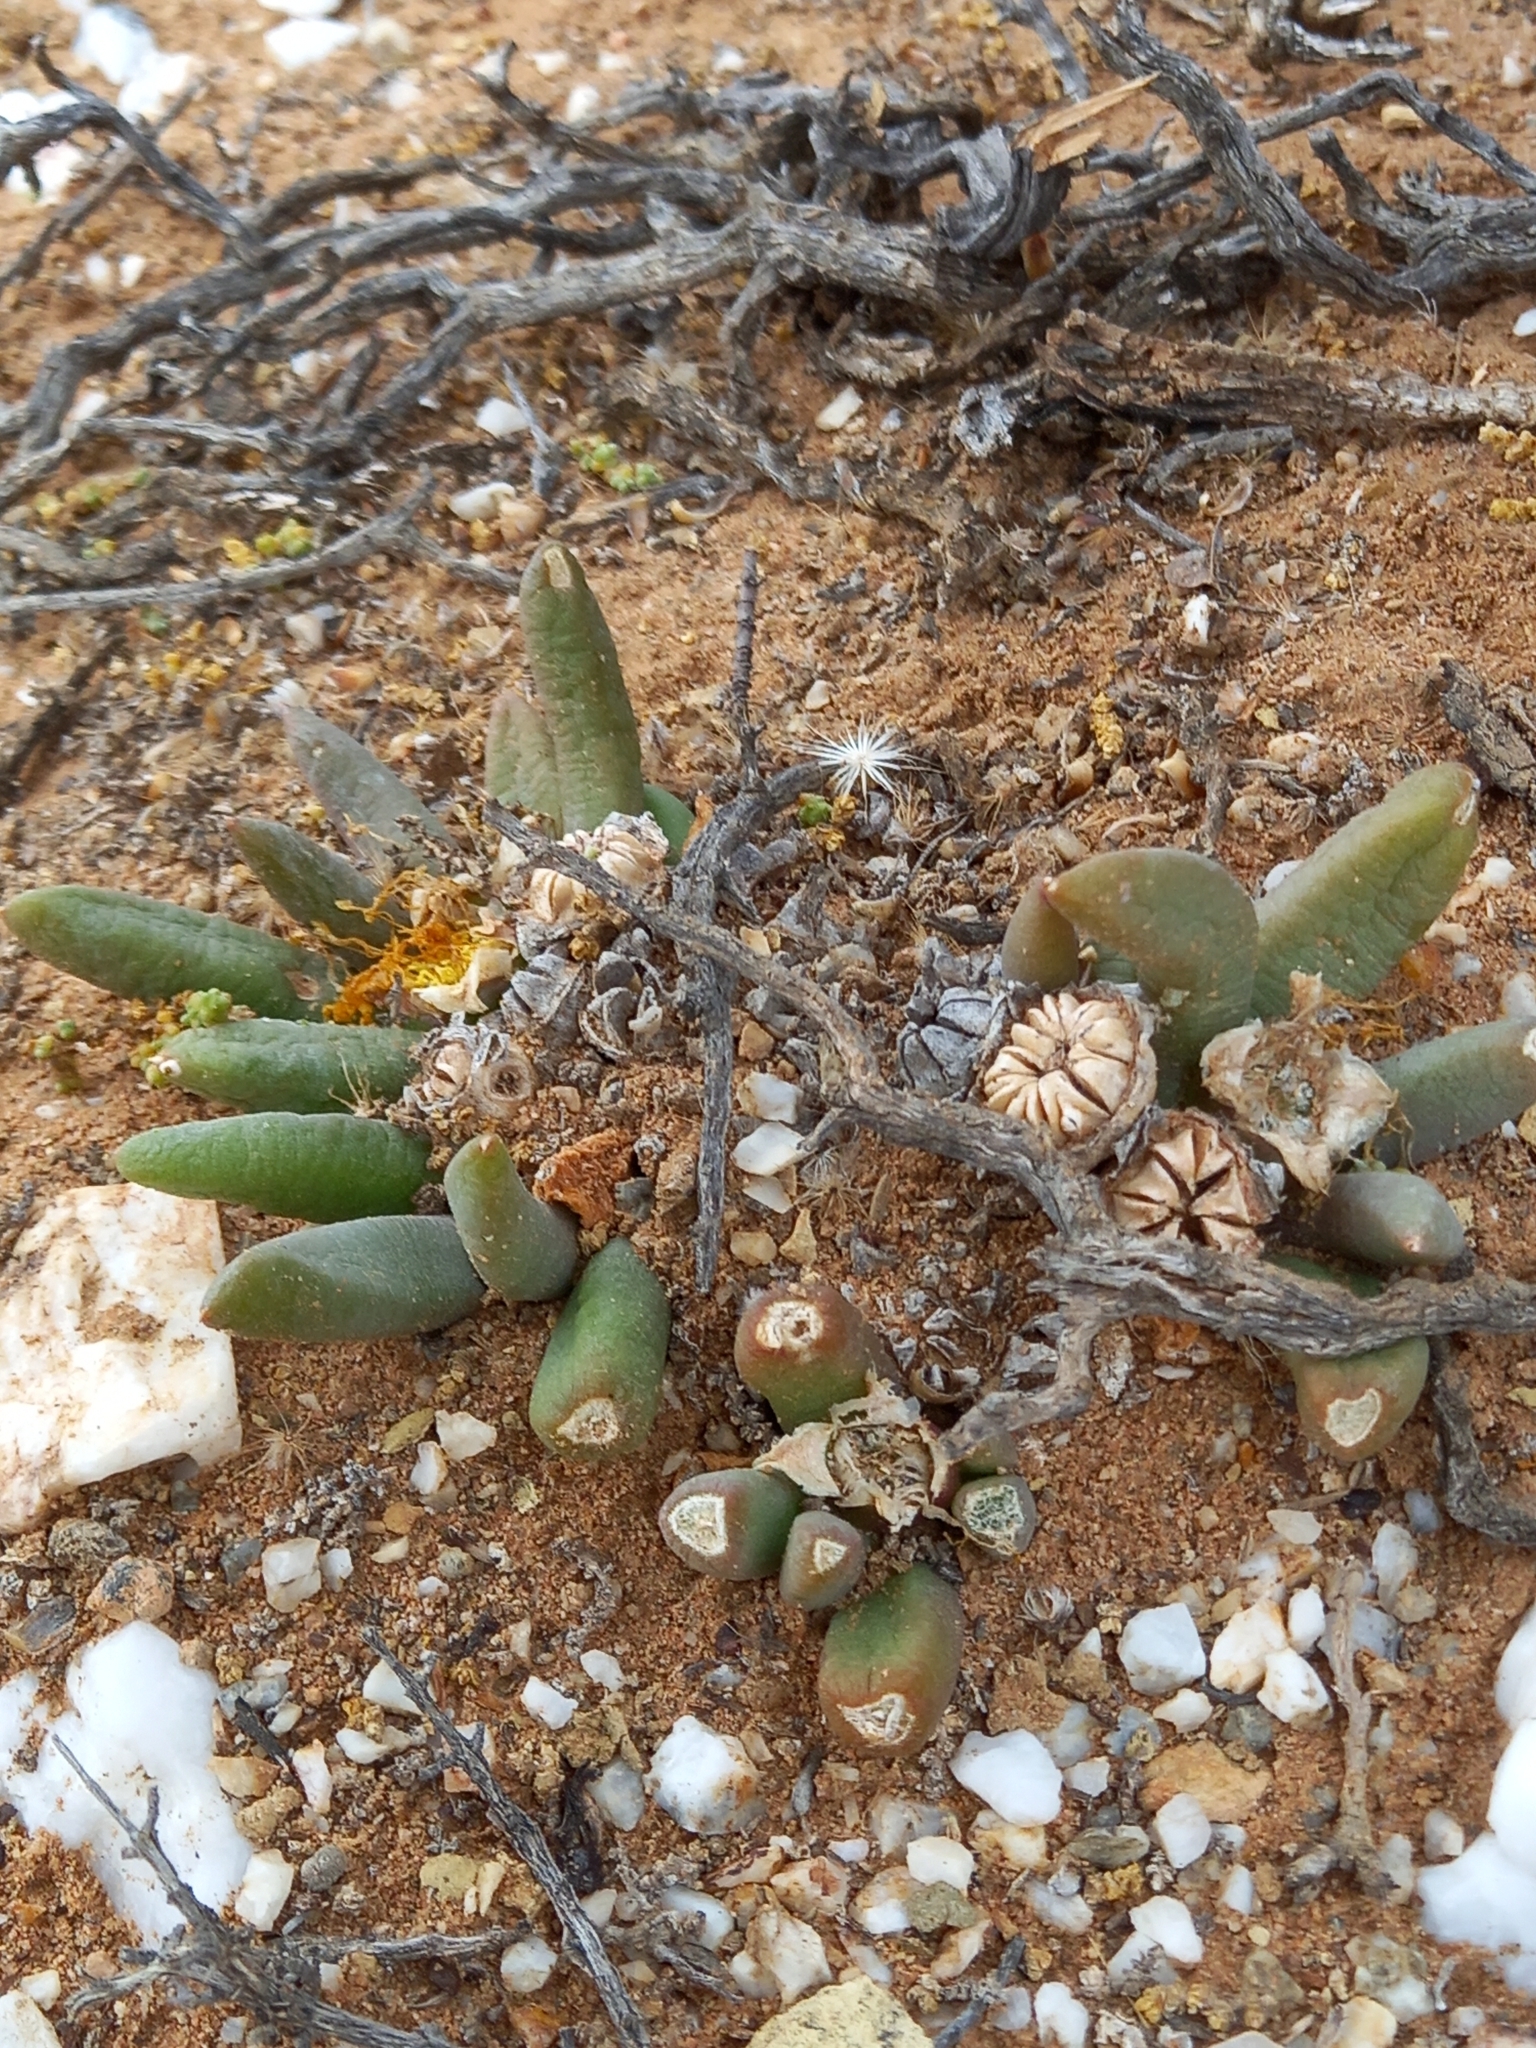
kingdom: Plantae
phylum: Tracheophyta
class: Magnoliopsida
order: Caryophyllales
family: Aizoaceae
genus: Glottiphyllum
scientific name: Glottiphyllum fergusoniae
